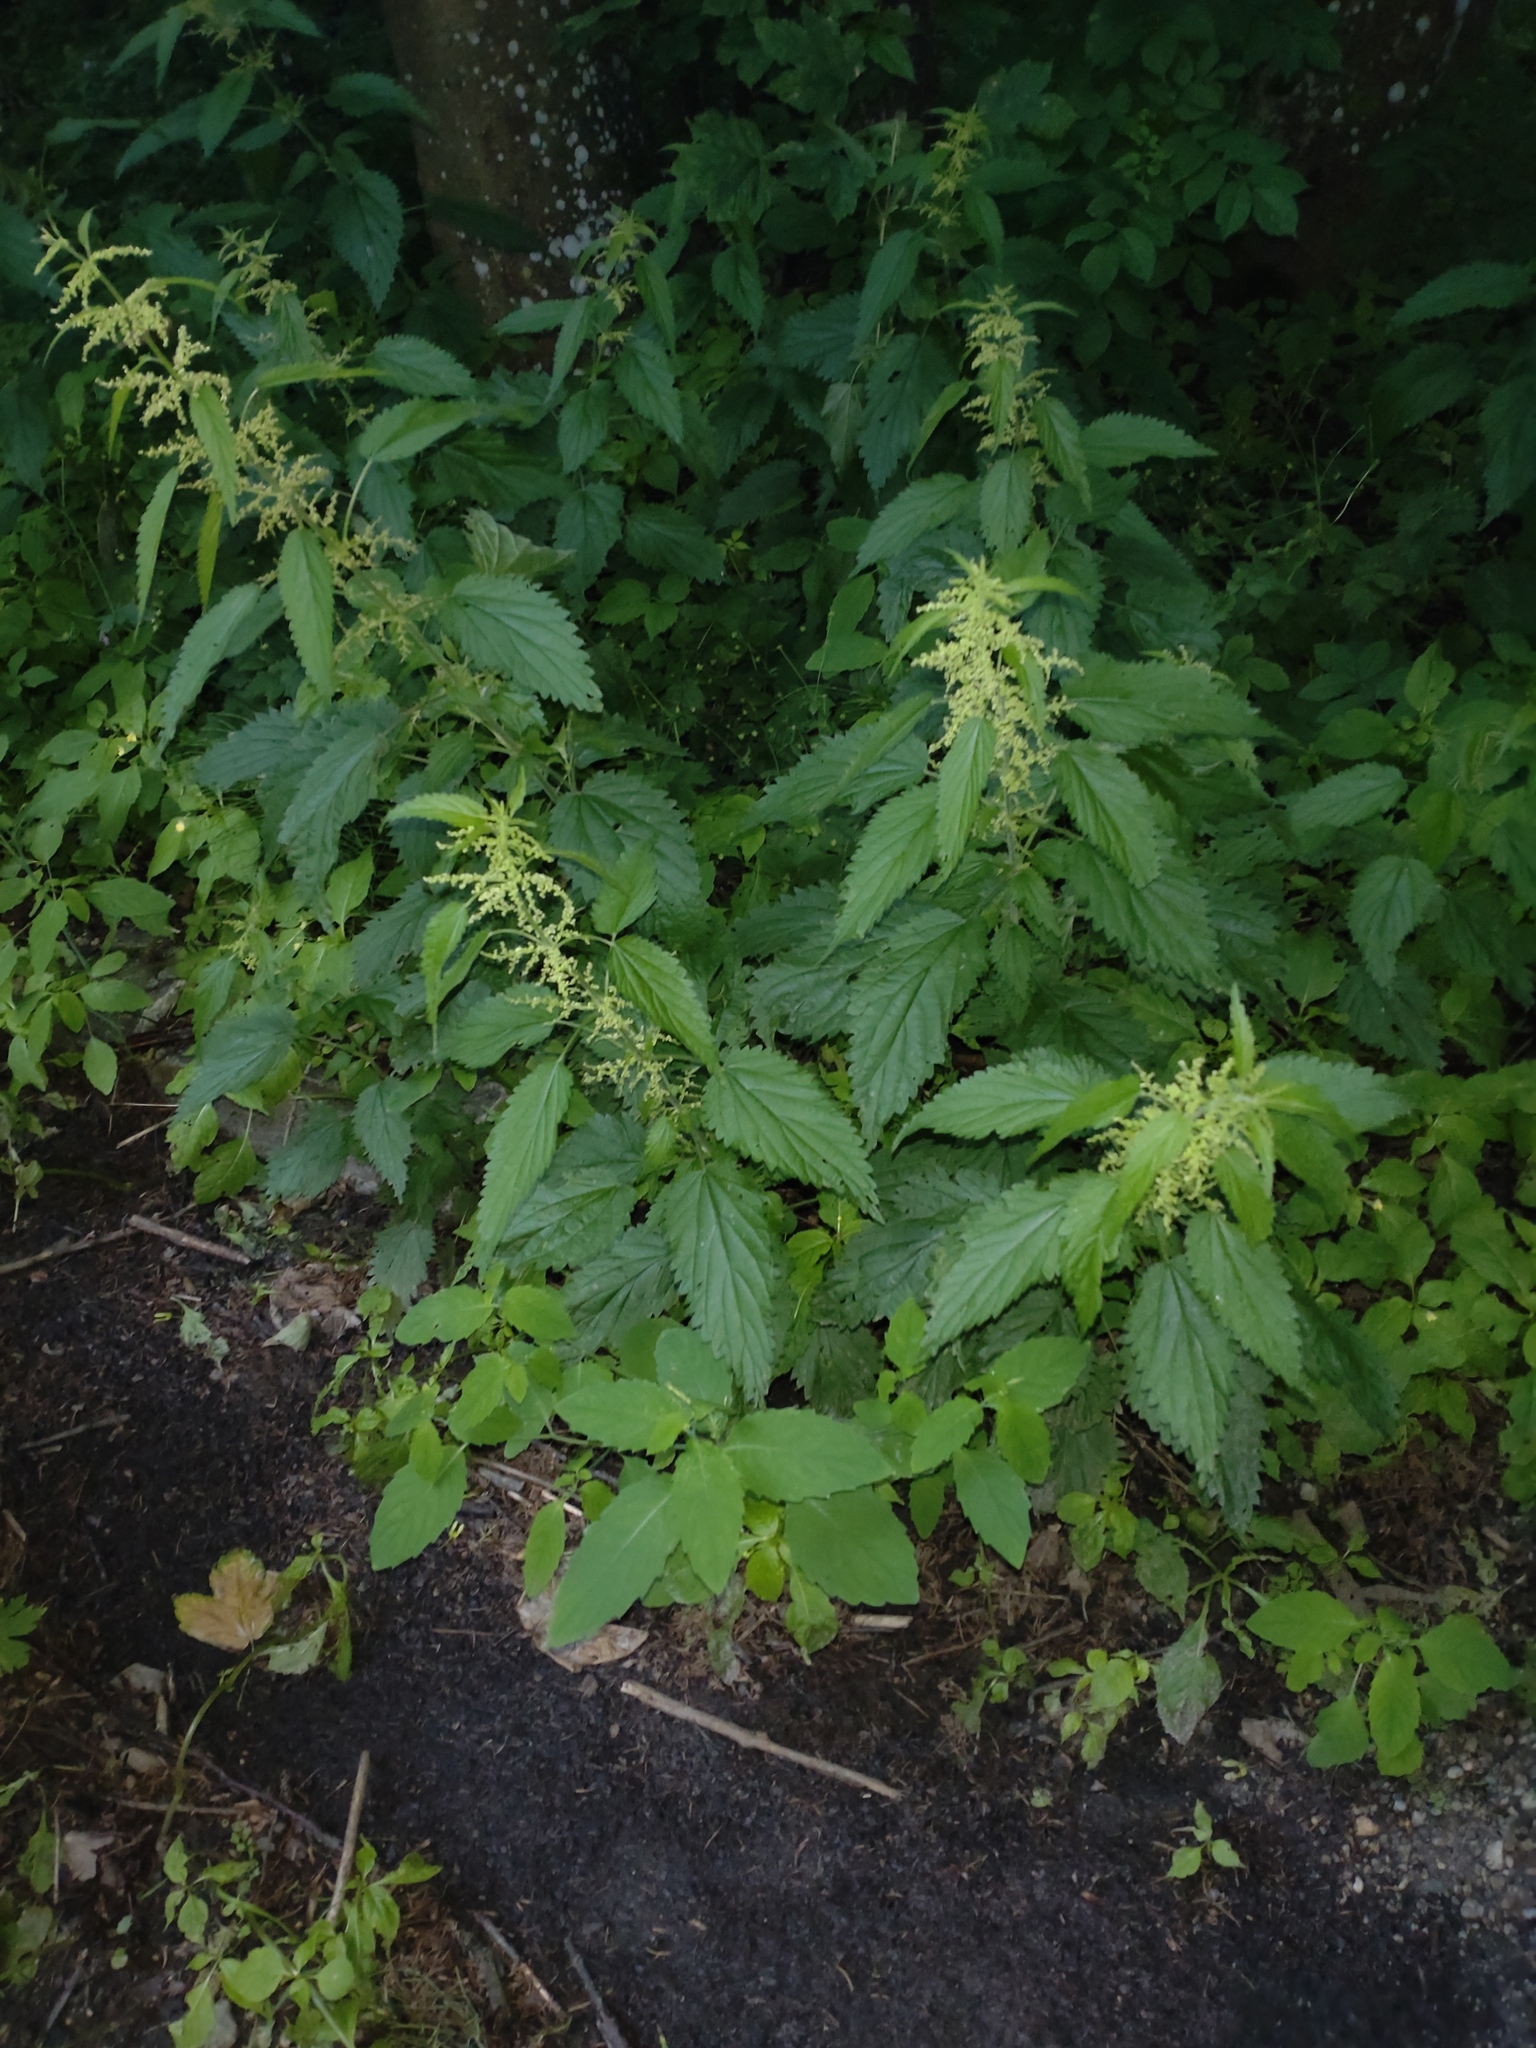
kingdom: Plantae
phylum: Tracheophyta
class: Magnoliopsida
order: Rosales
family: Urticaceae
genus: Urtica
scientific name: Urtica dioica
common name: Common nettle
